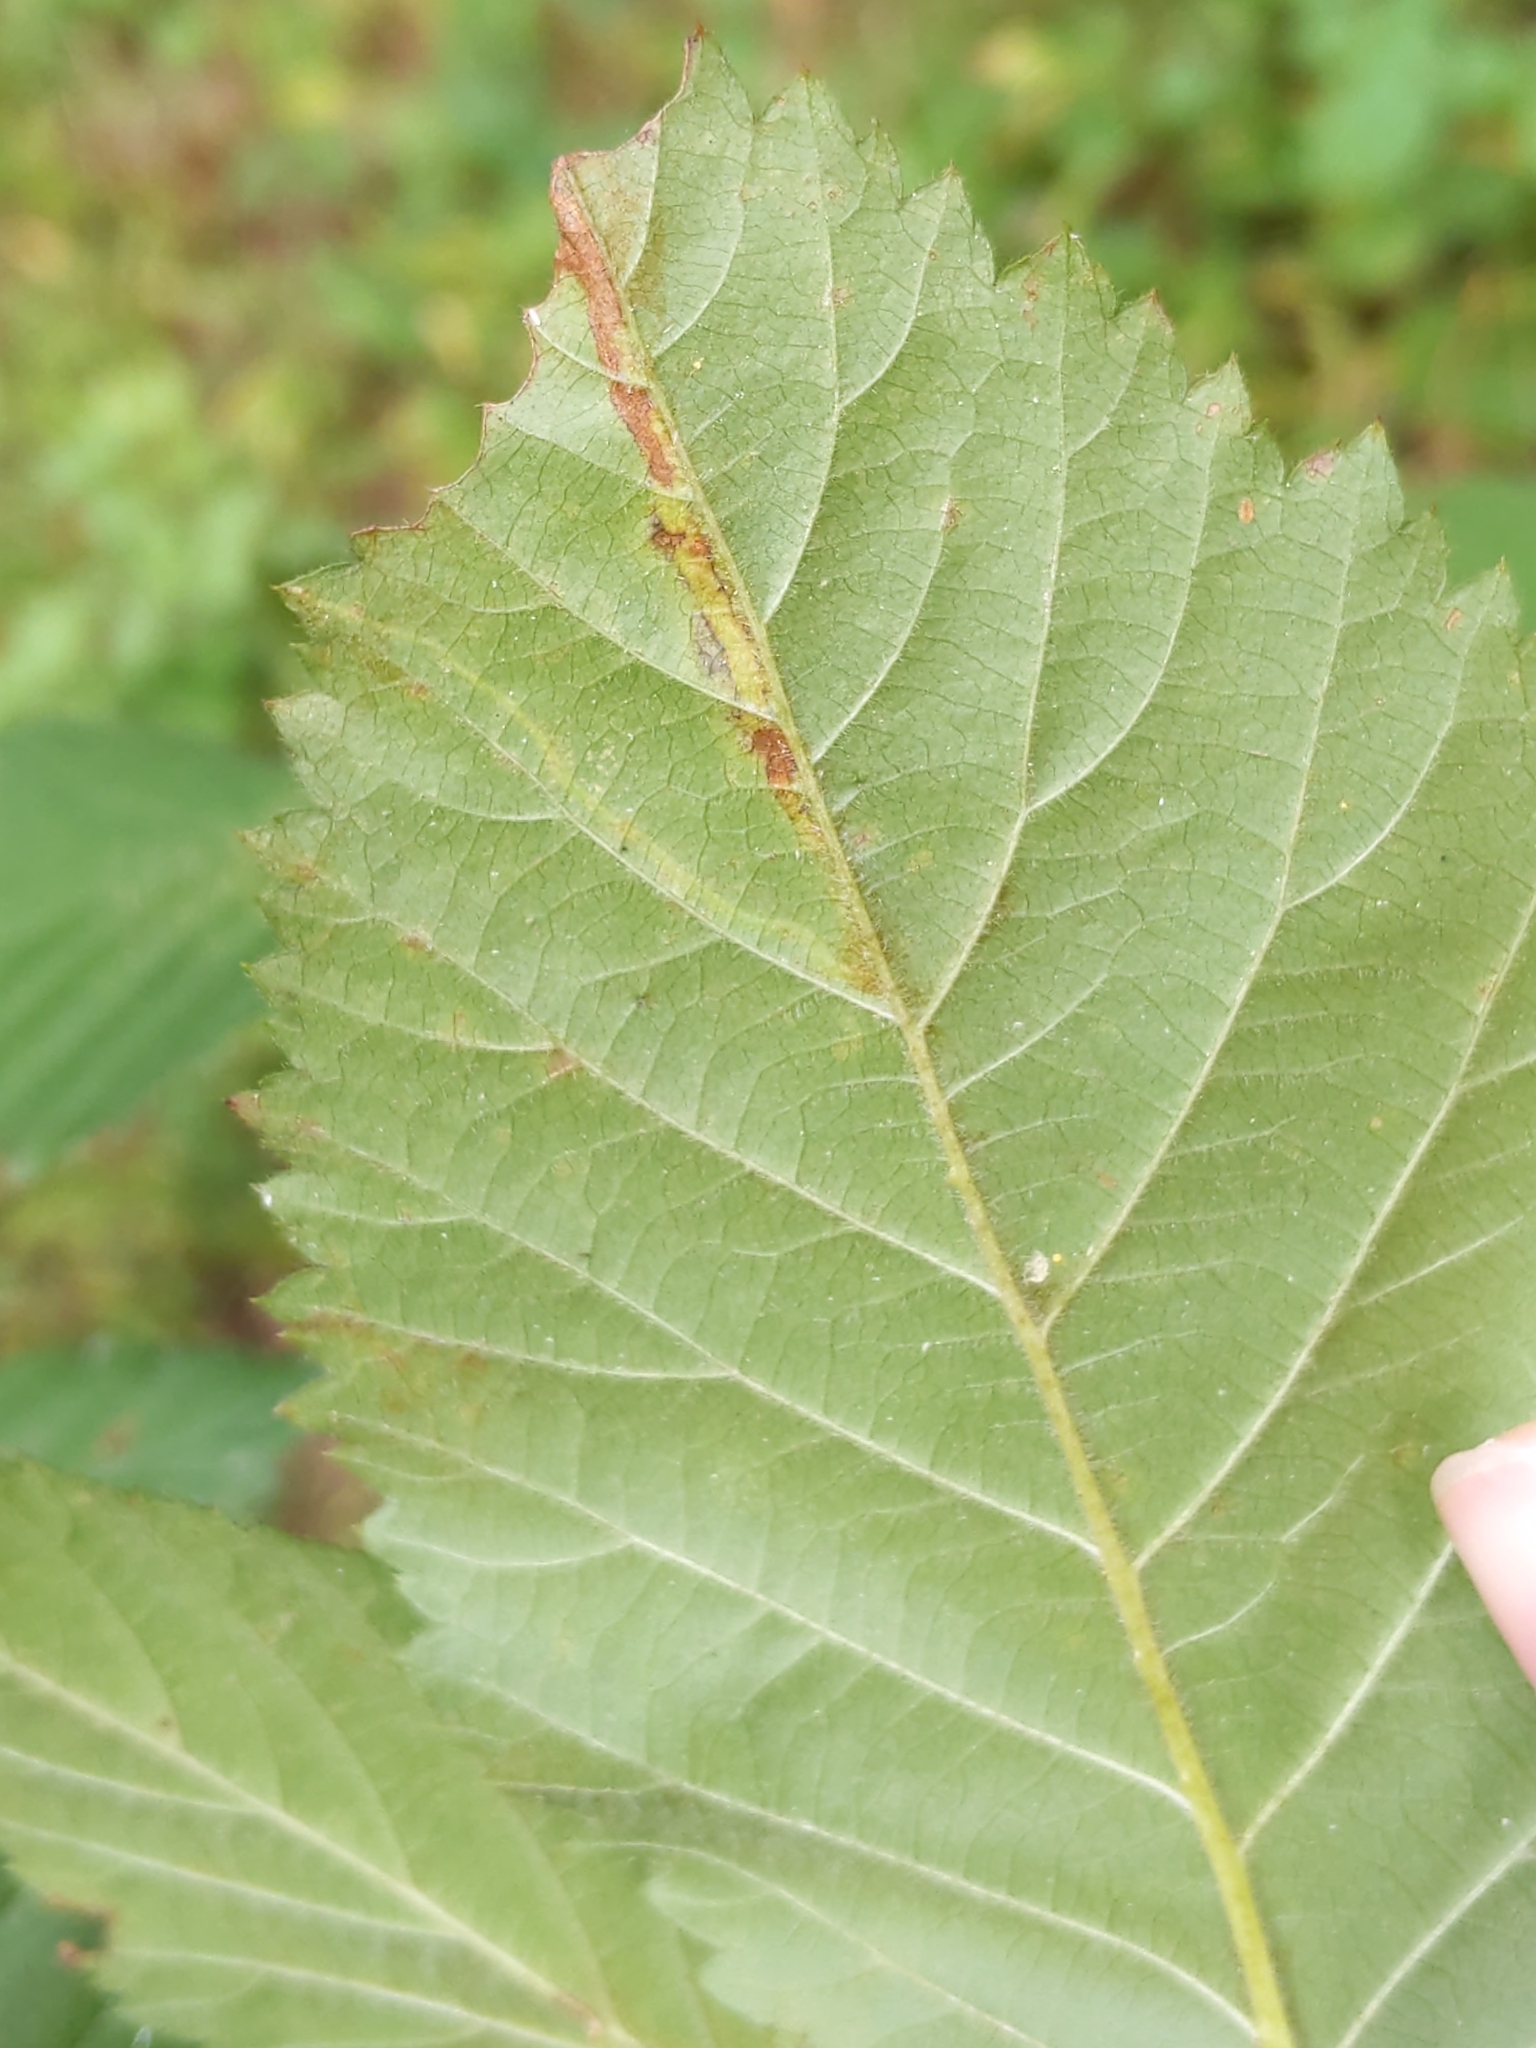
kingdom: Animalia
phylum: Arthropoda
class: Insecta
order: Diptera
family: Agromyzidae
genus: Agromyza
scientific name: Agromyza vockerothi
